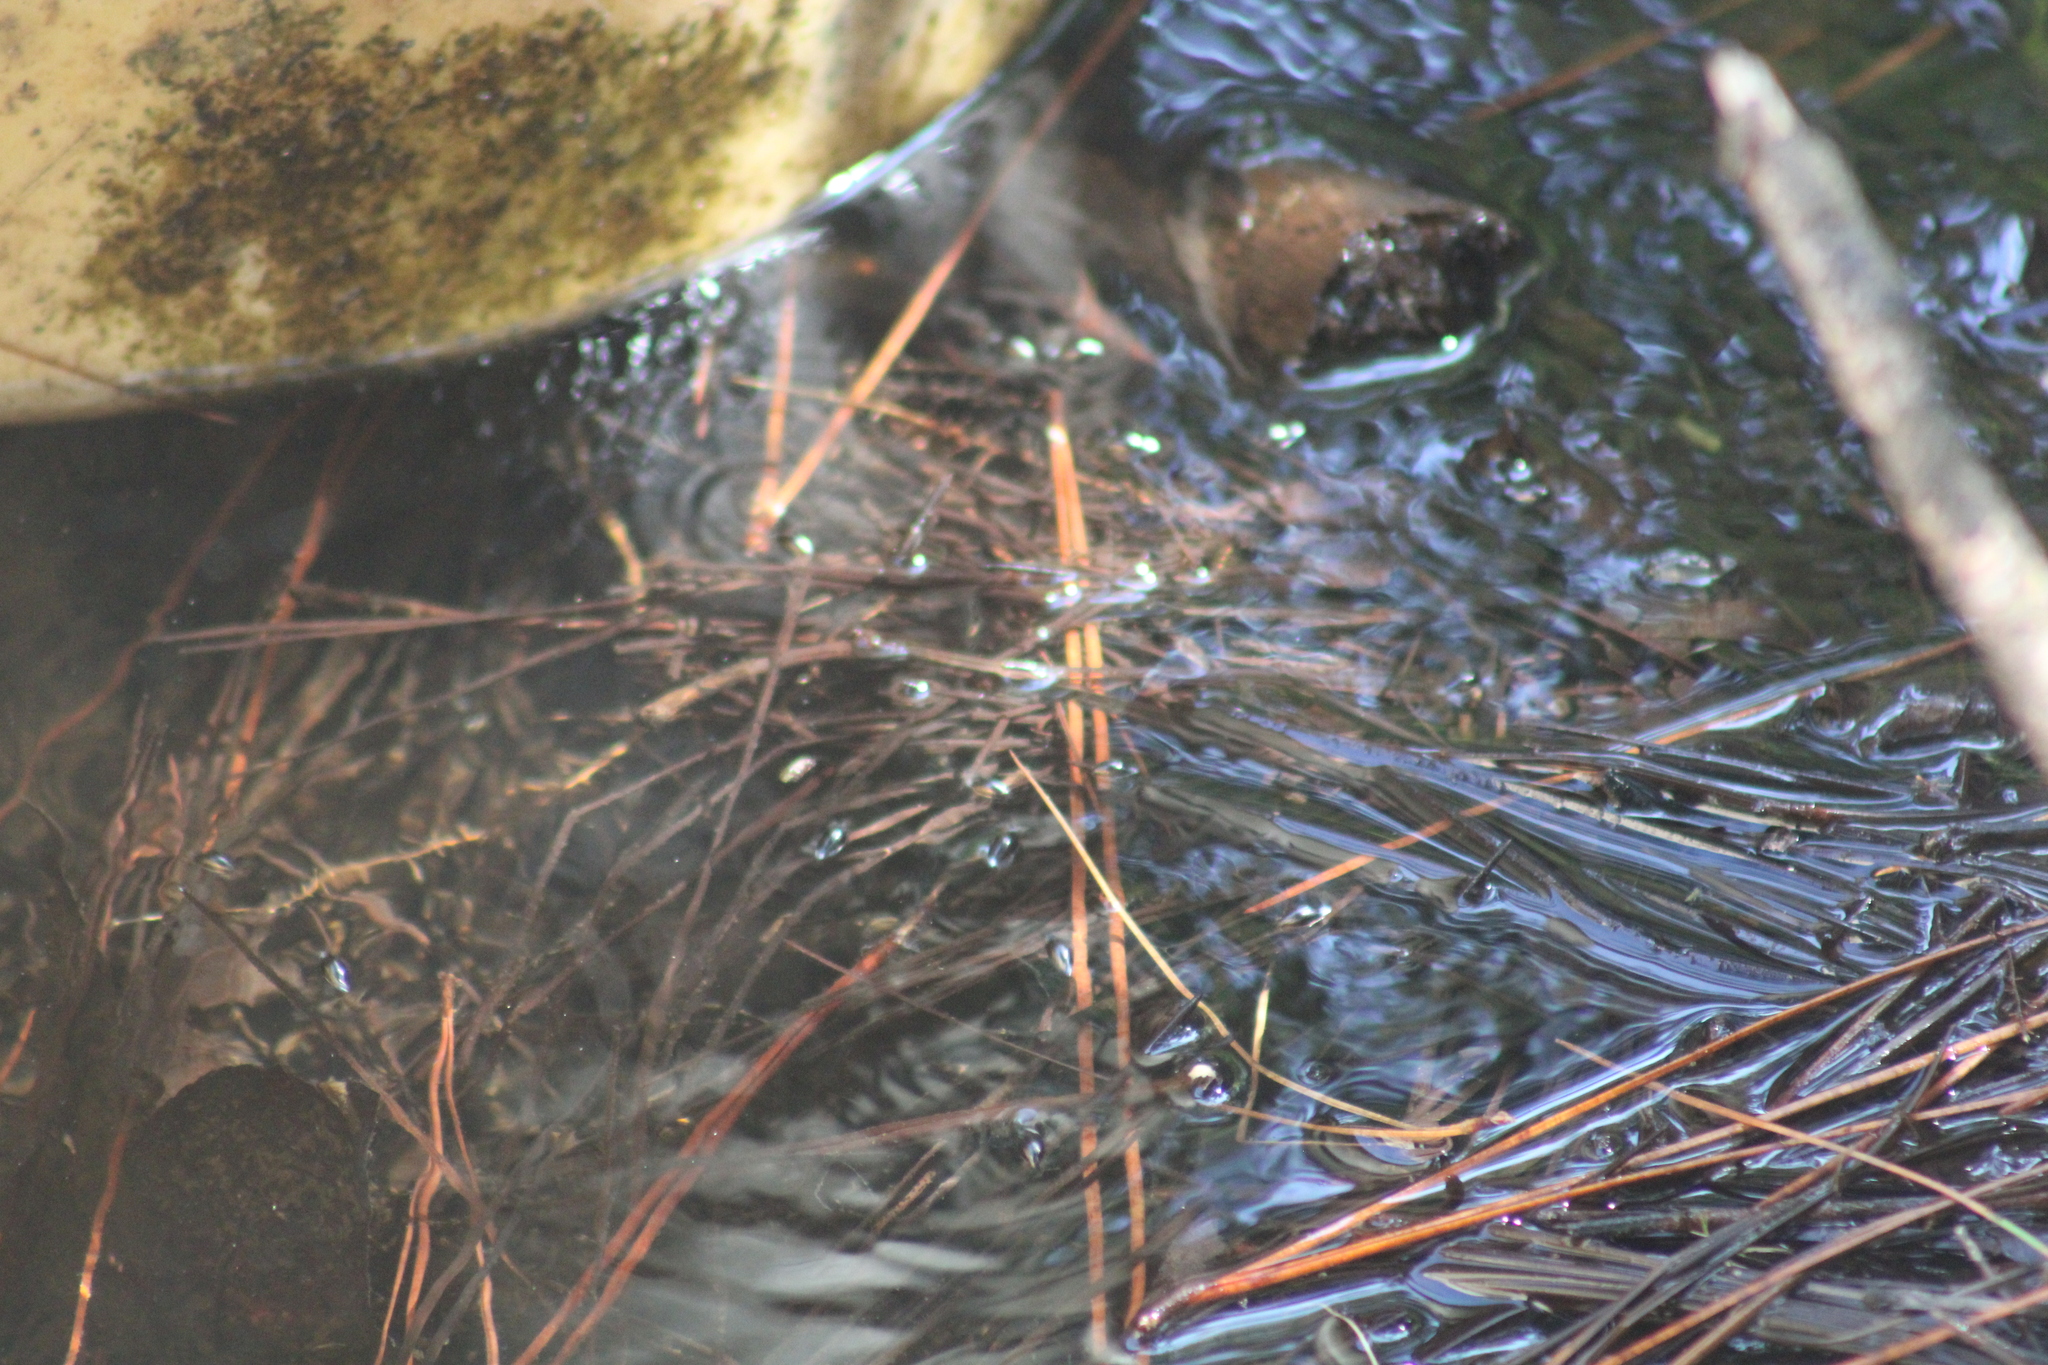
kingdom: Animalia
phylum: Arthropoda
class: Insecta
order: Coleoptera
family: Gyrinidae
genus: Dineutus
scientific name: Dineutus
